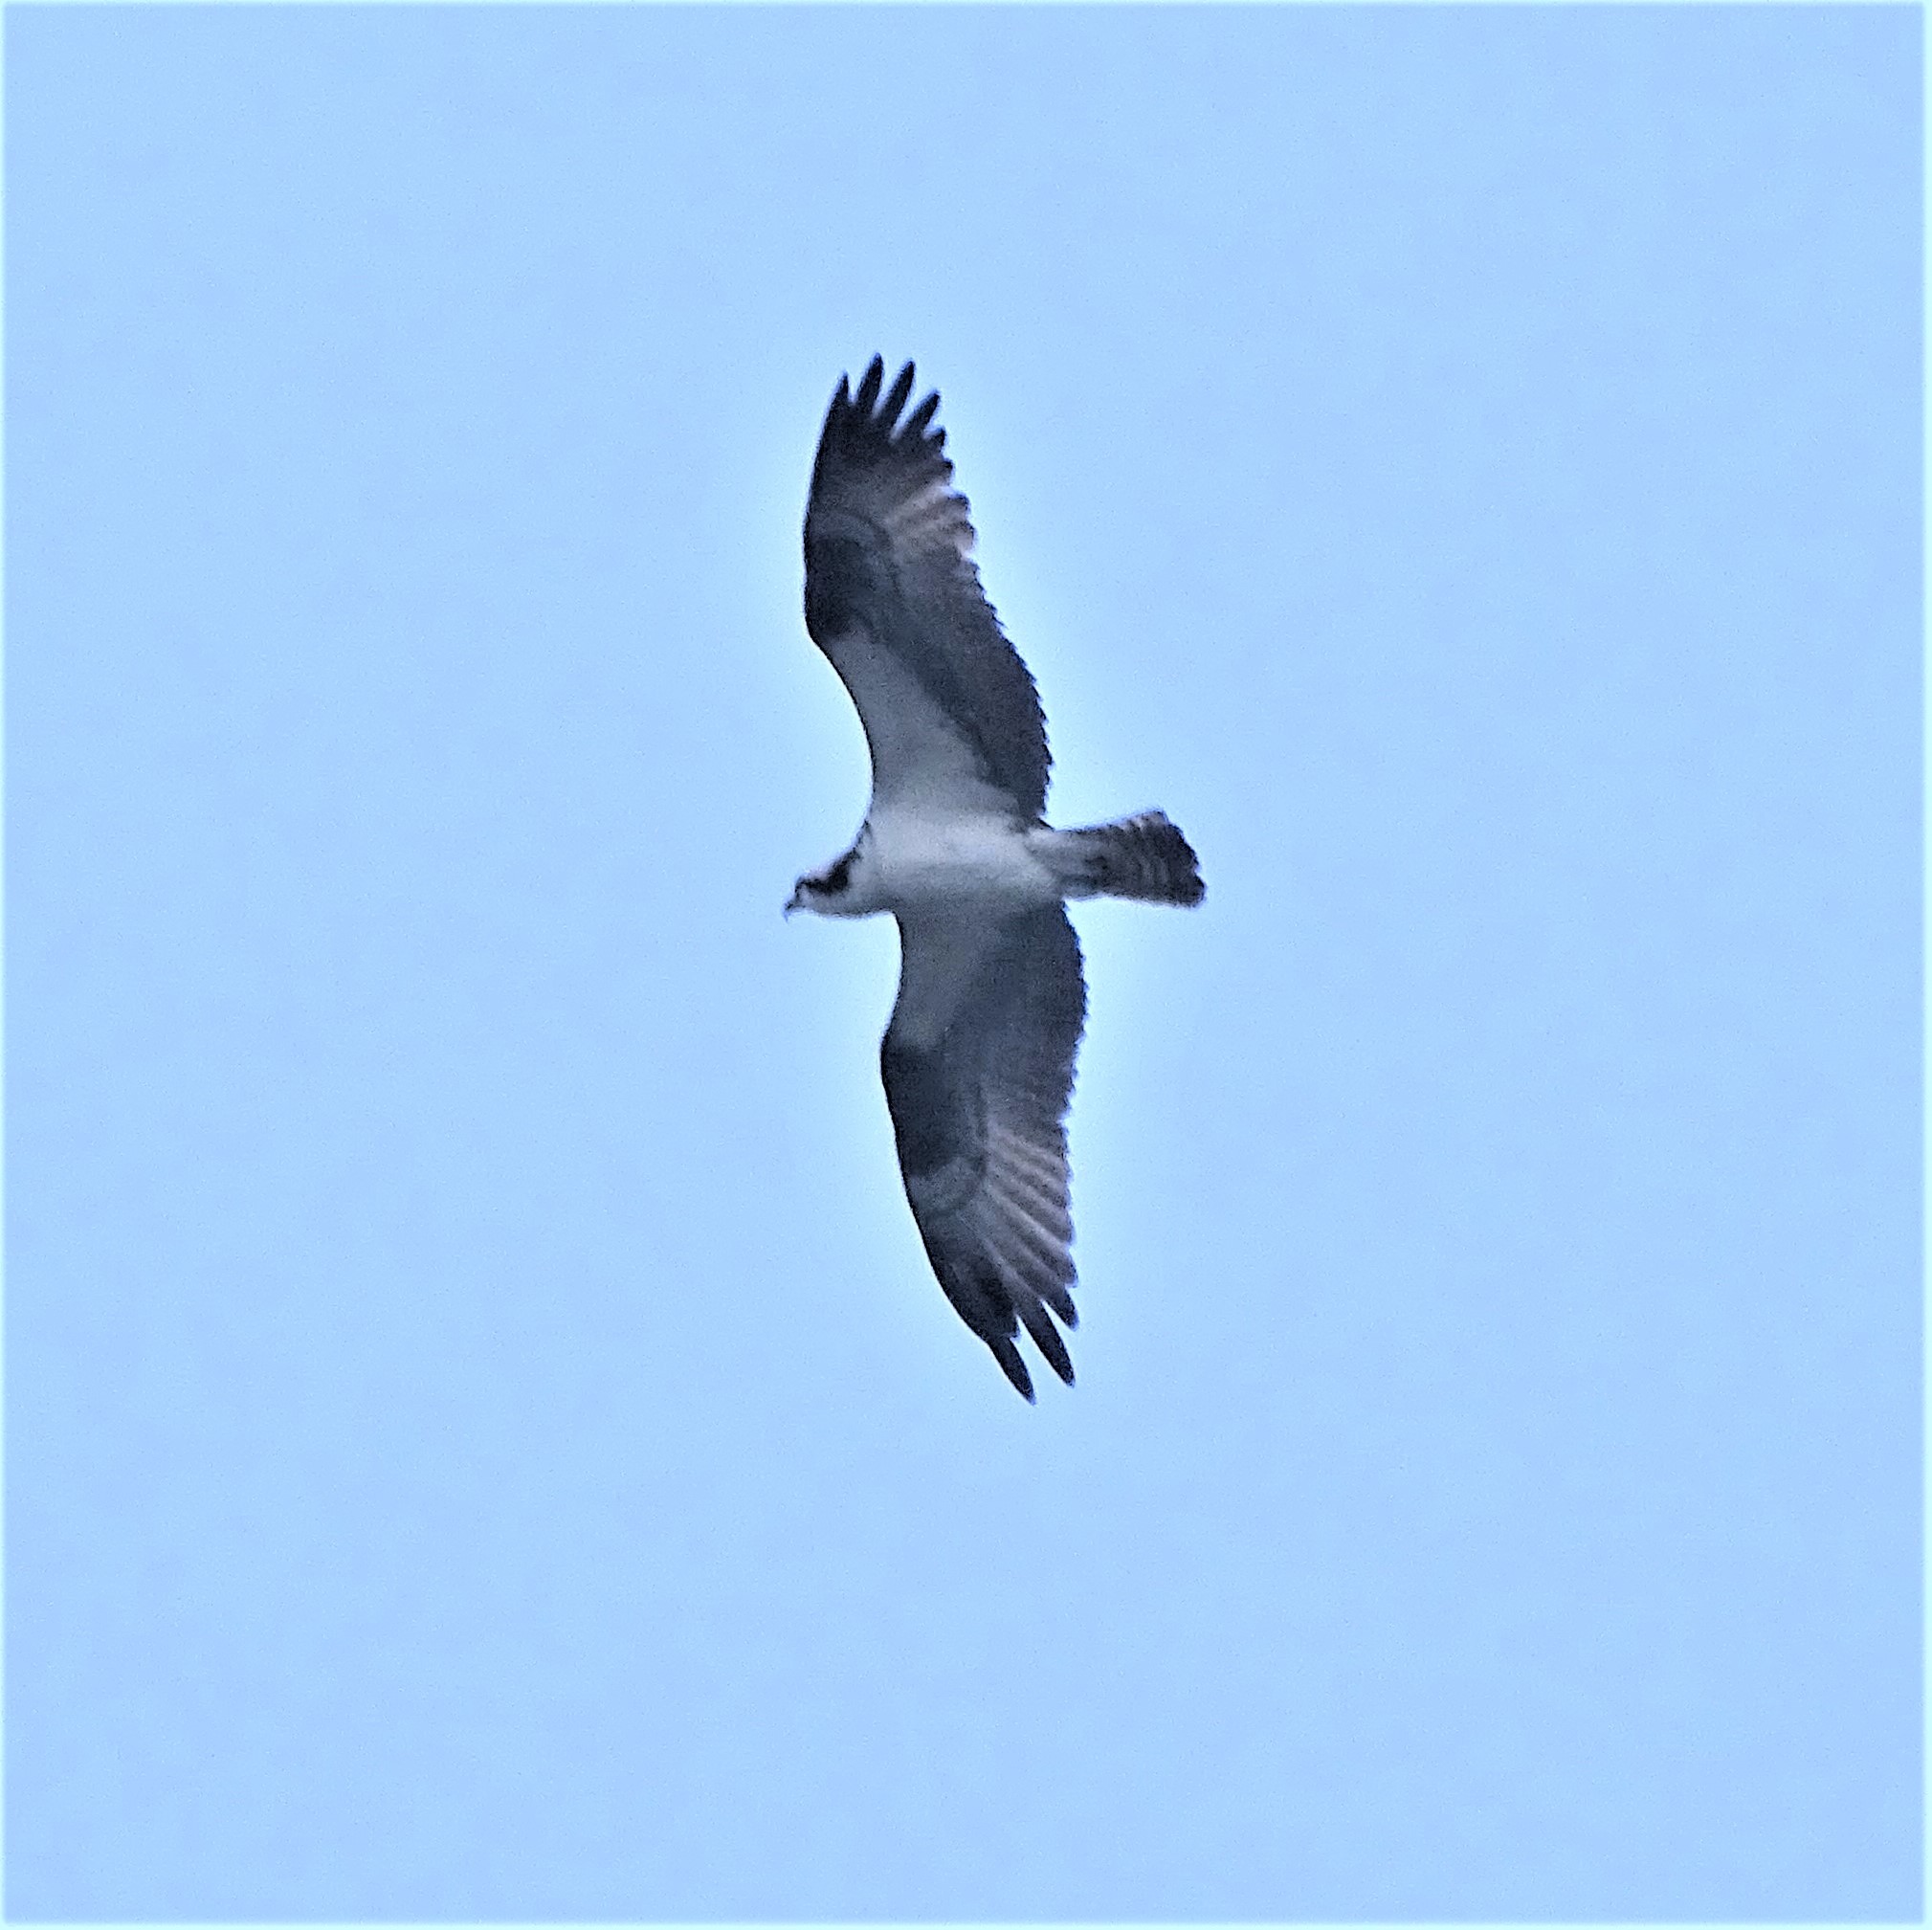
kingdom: Animalia
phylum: Chordata
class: Aves
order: Accipitriformes
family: Pandionidae
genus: Pandion
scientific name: Pandion haliaetus
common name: Osprey
